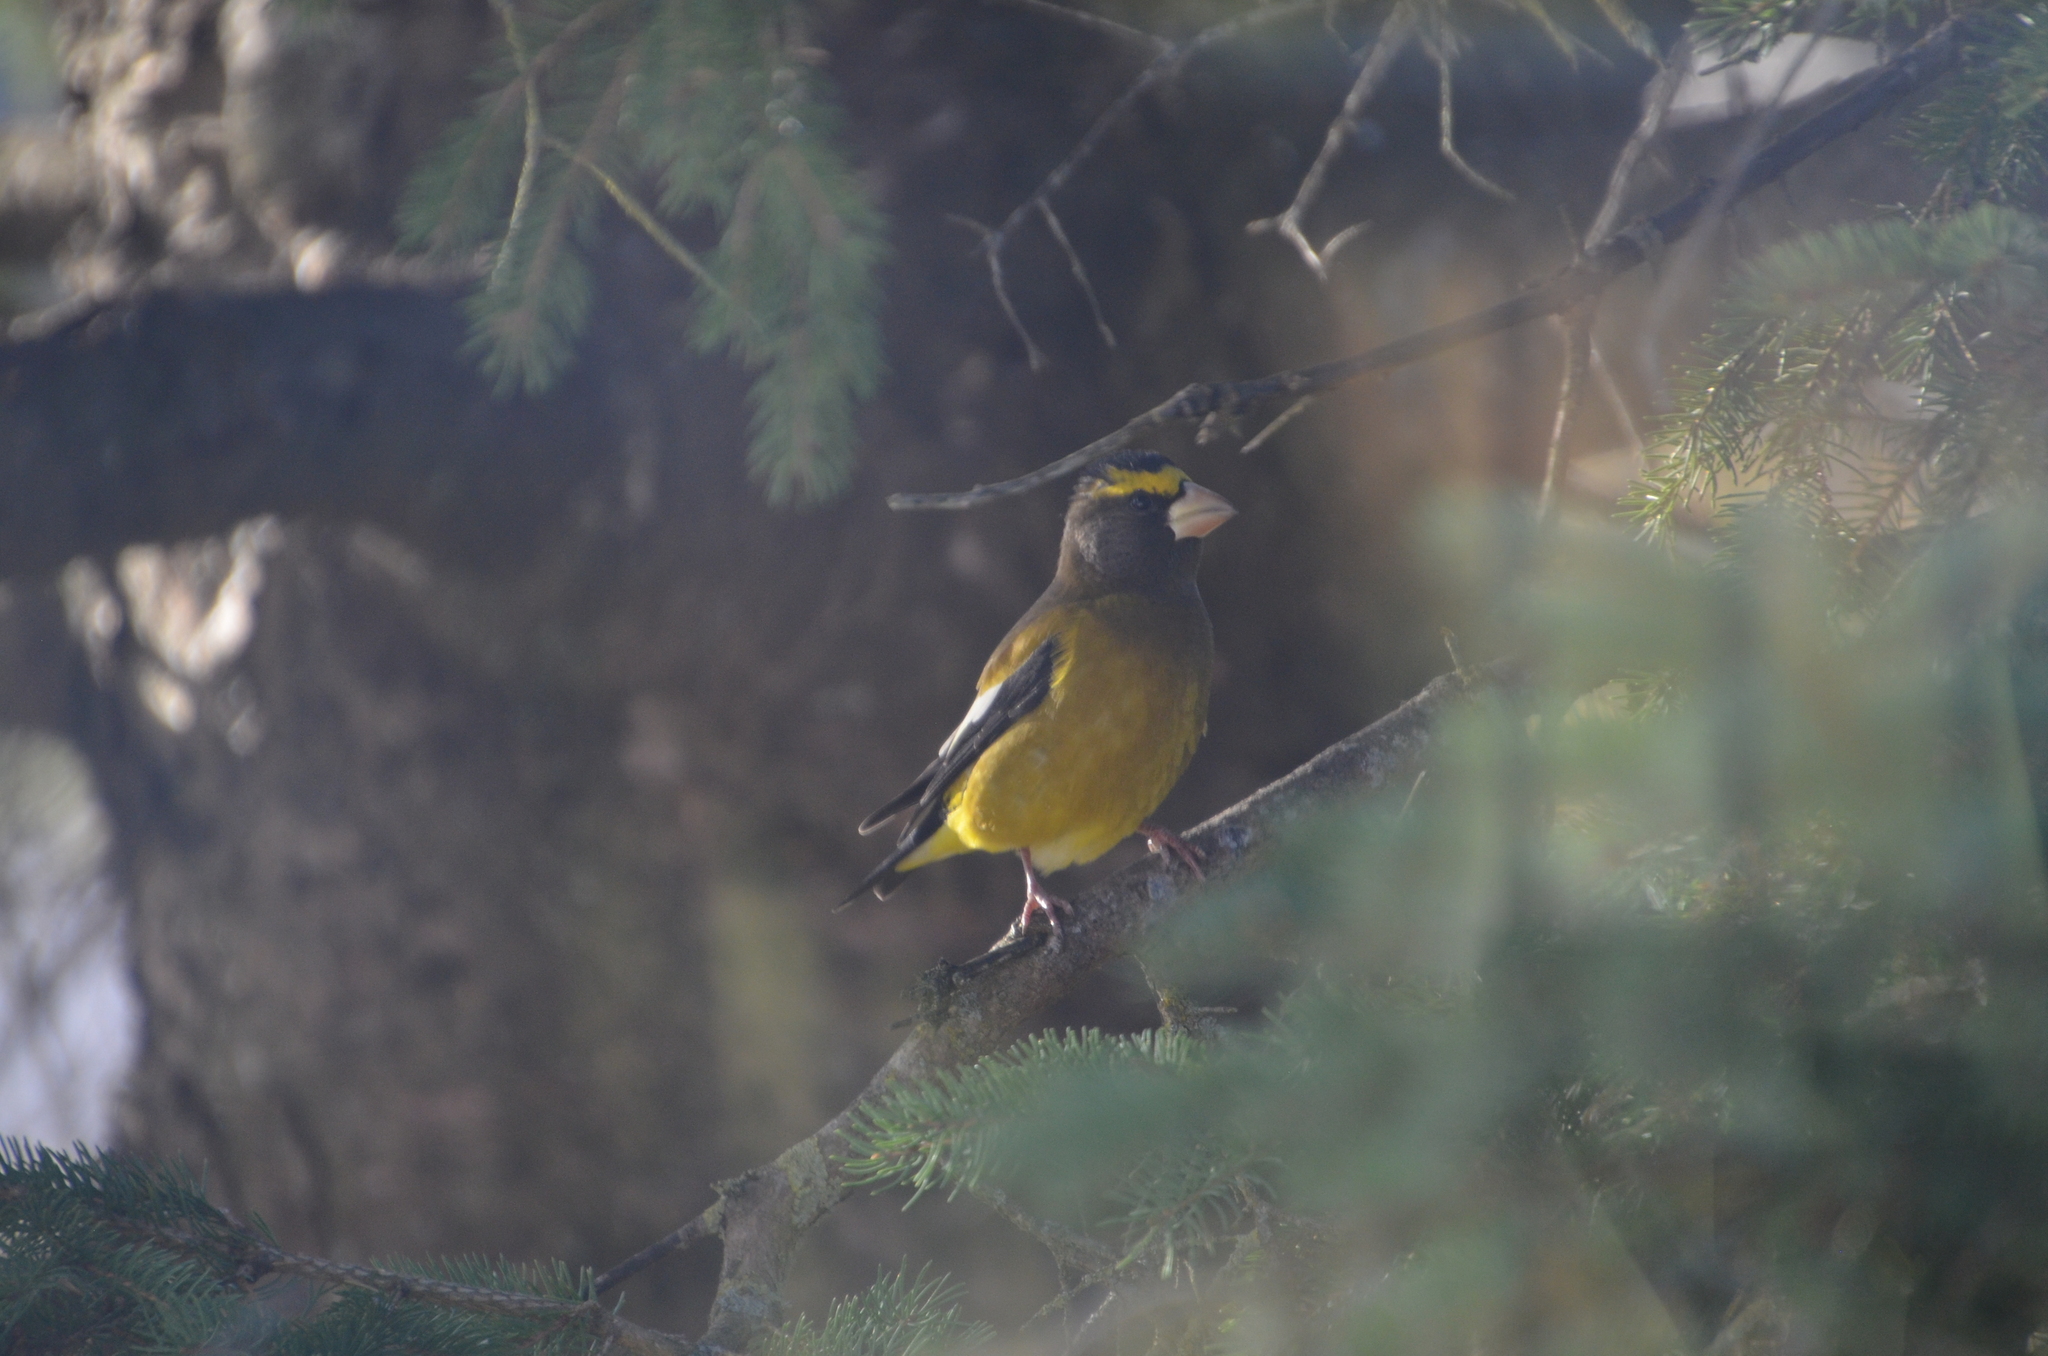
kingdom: Animalia
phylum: Chordata
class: Aves
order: Passeriformes
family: Fringillidae
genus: Hesperiphona
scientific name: Hesperiphona vespertina
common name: Evening grosbeak
